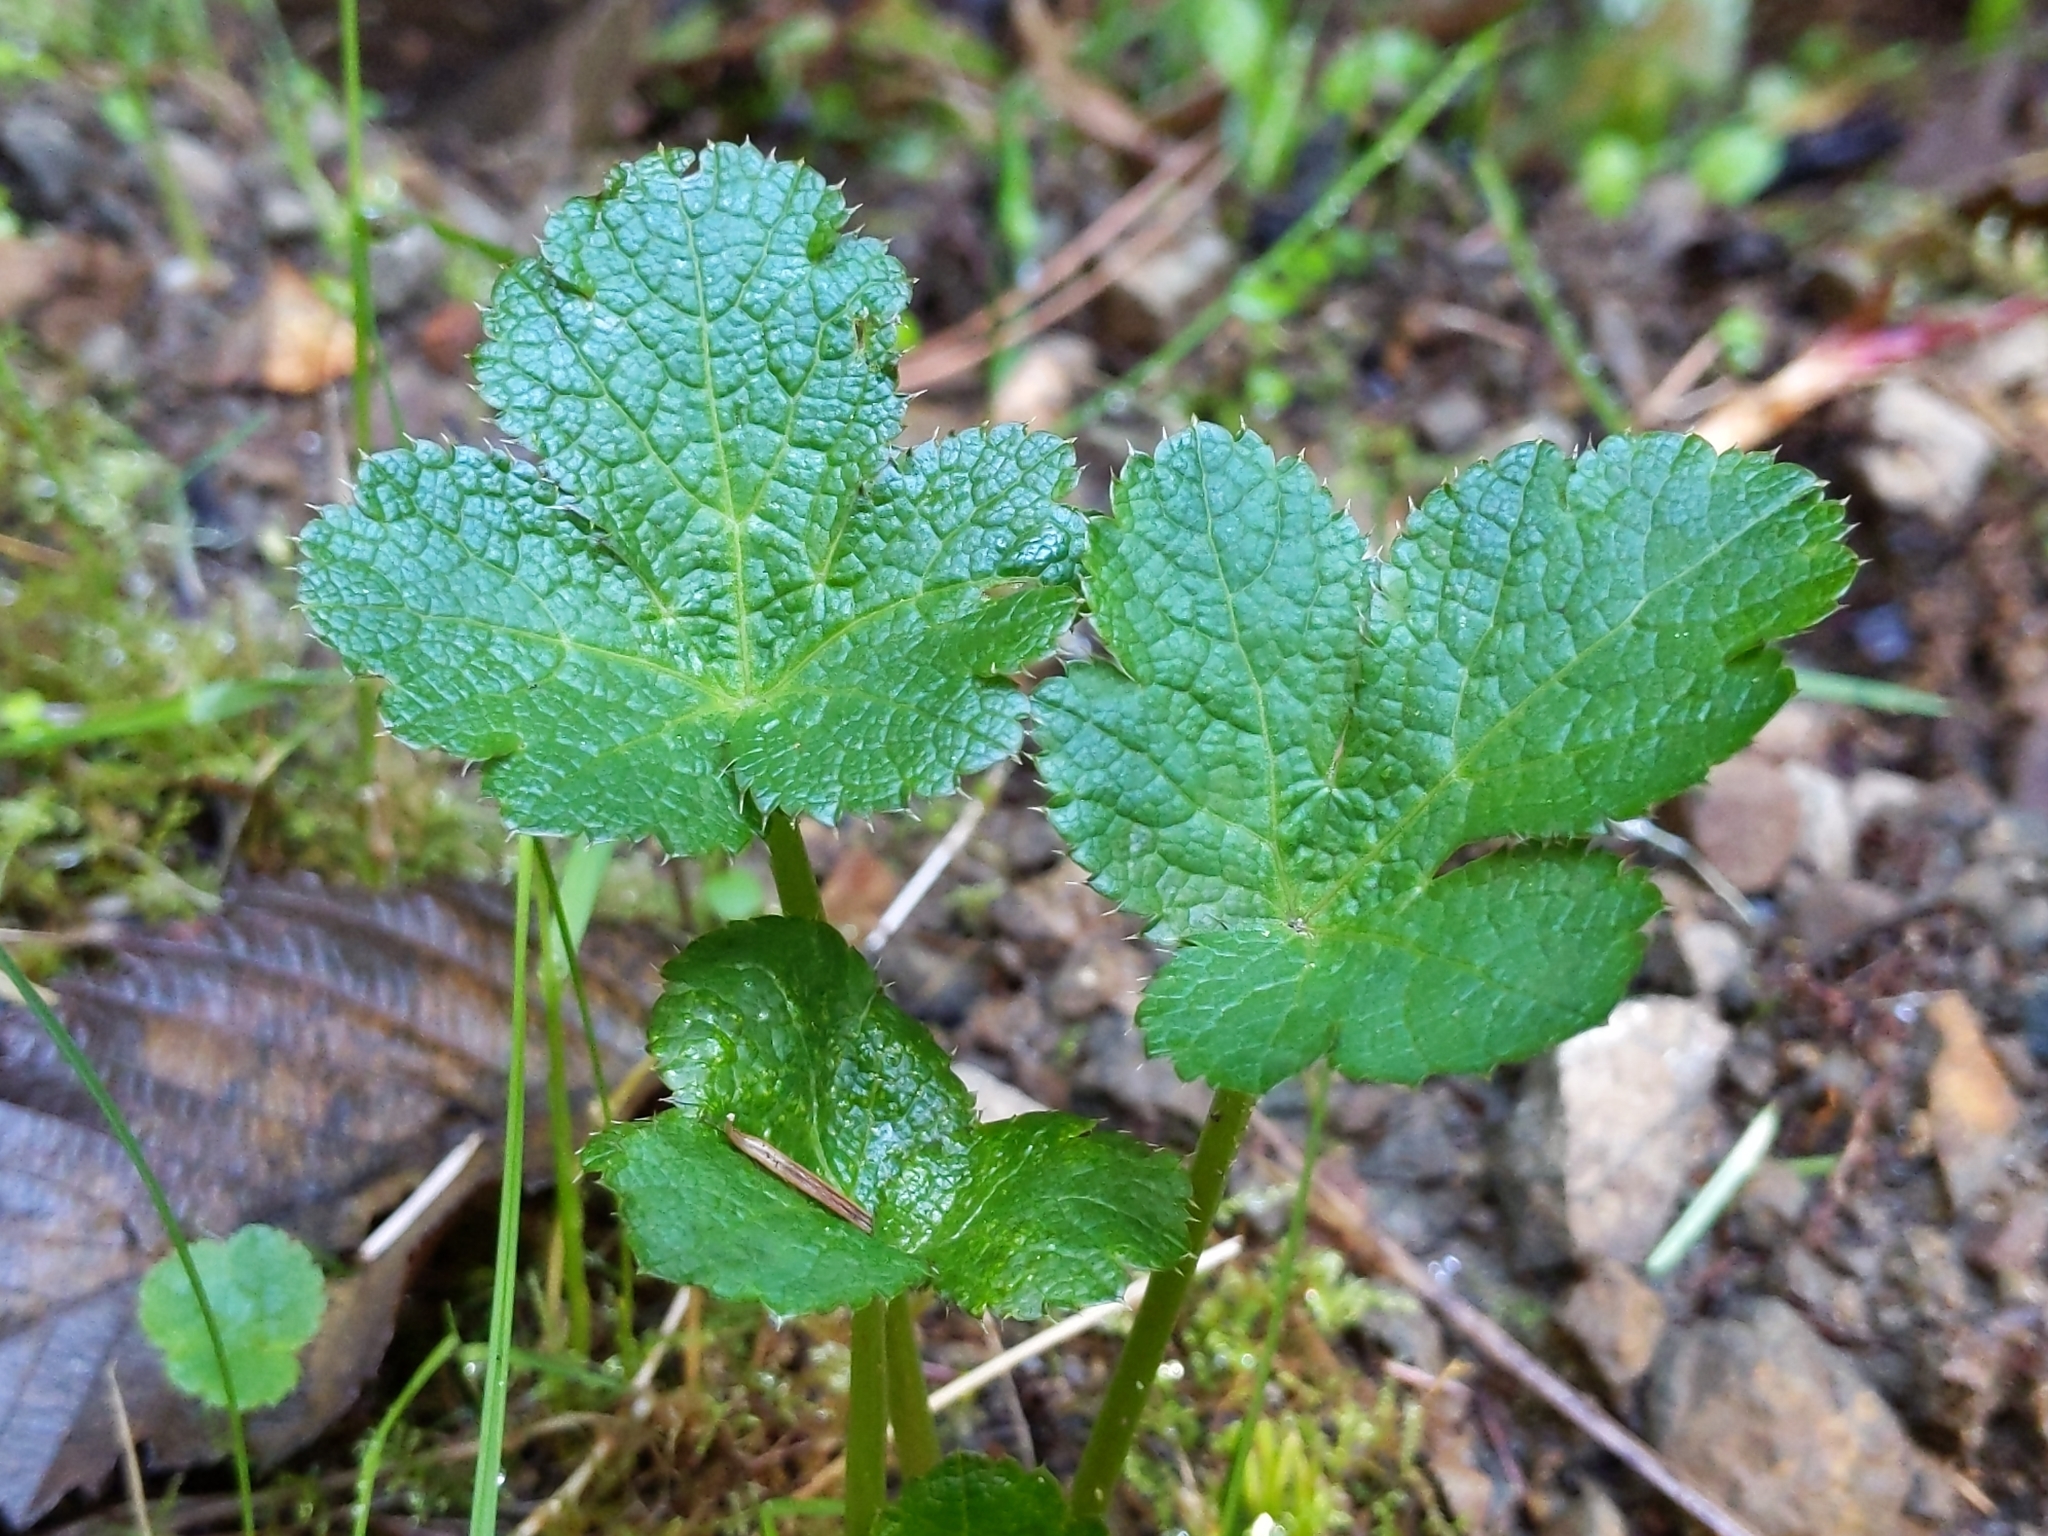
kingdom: Plantae
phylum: Tracheophyta
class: Magnoliopsida
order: Apiales
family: Apiaceae
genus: Sanicula
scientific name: Sanicula crassicaulis
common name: Western snakeroot
